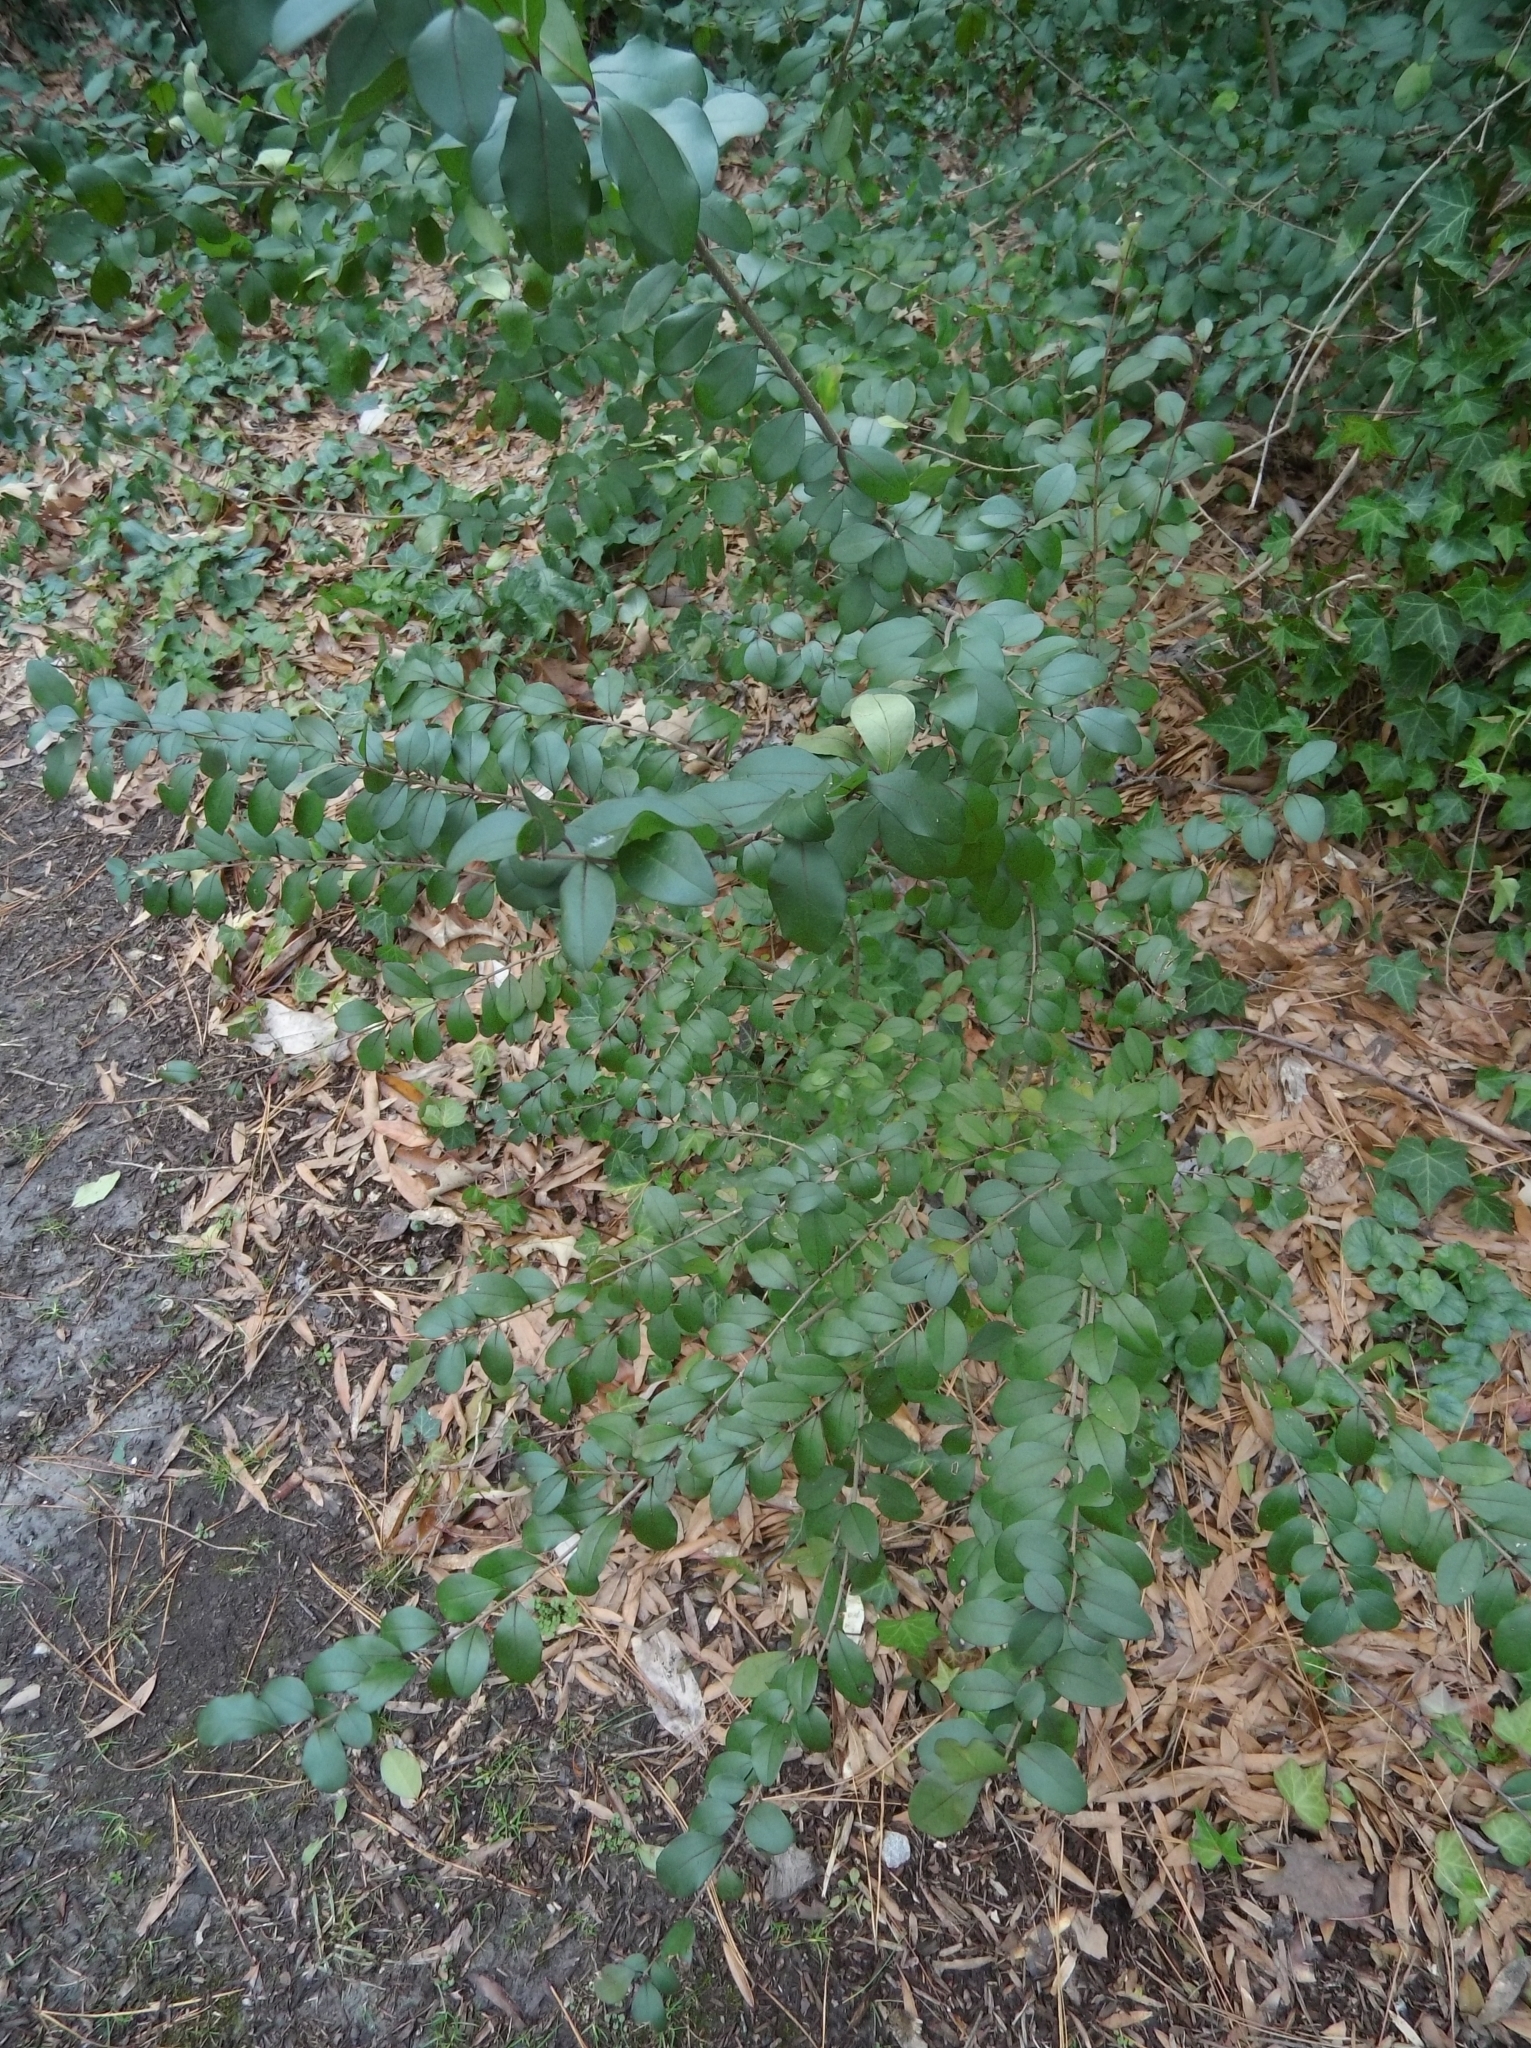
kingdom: Plantae
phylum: Tracheophyta
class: Magnoliopsida
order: Lamiales
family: Oleaceae
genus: Ligustrum
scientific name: Ligustrum sinense
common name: Chinese privet
